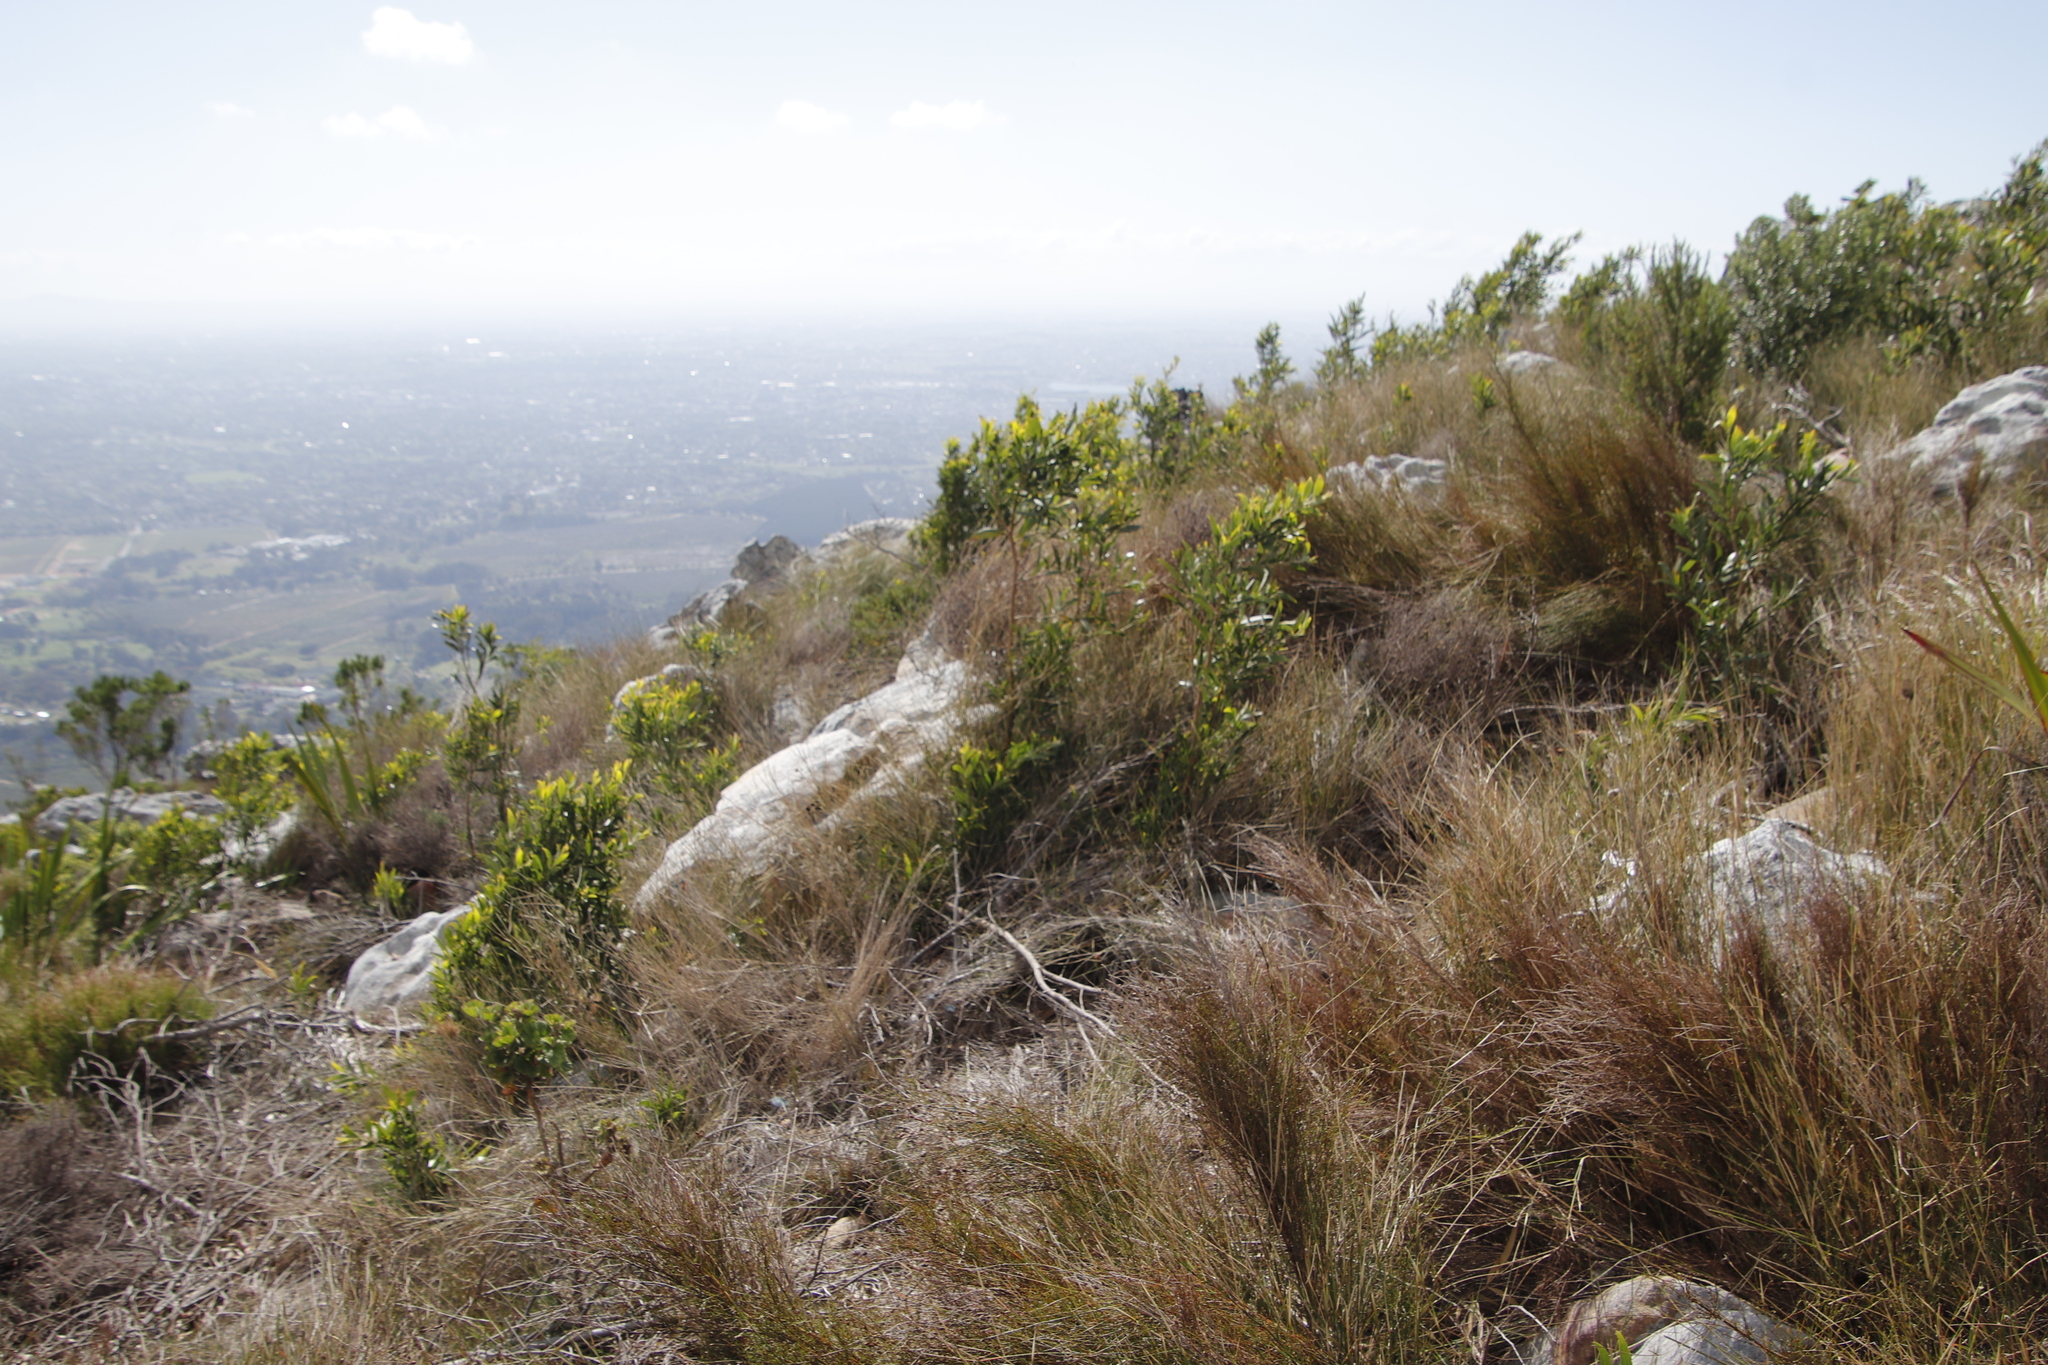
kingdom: Plantae
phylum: Tracheophyta
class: Magnoliopsida
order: Fabales
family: Fabaceae
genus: Acacia
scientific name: Acacia melanoxylon
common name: Blackwood
